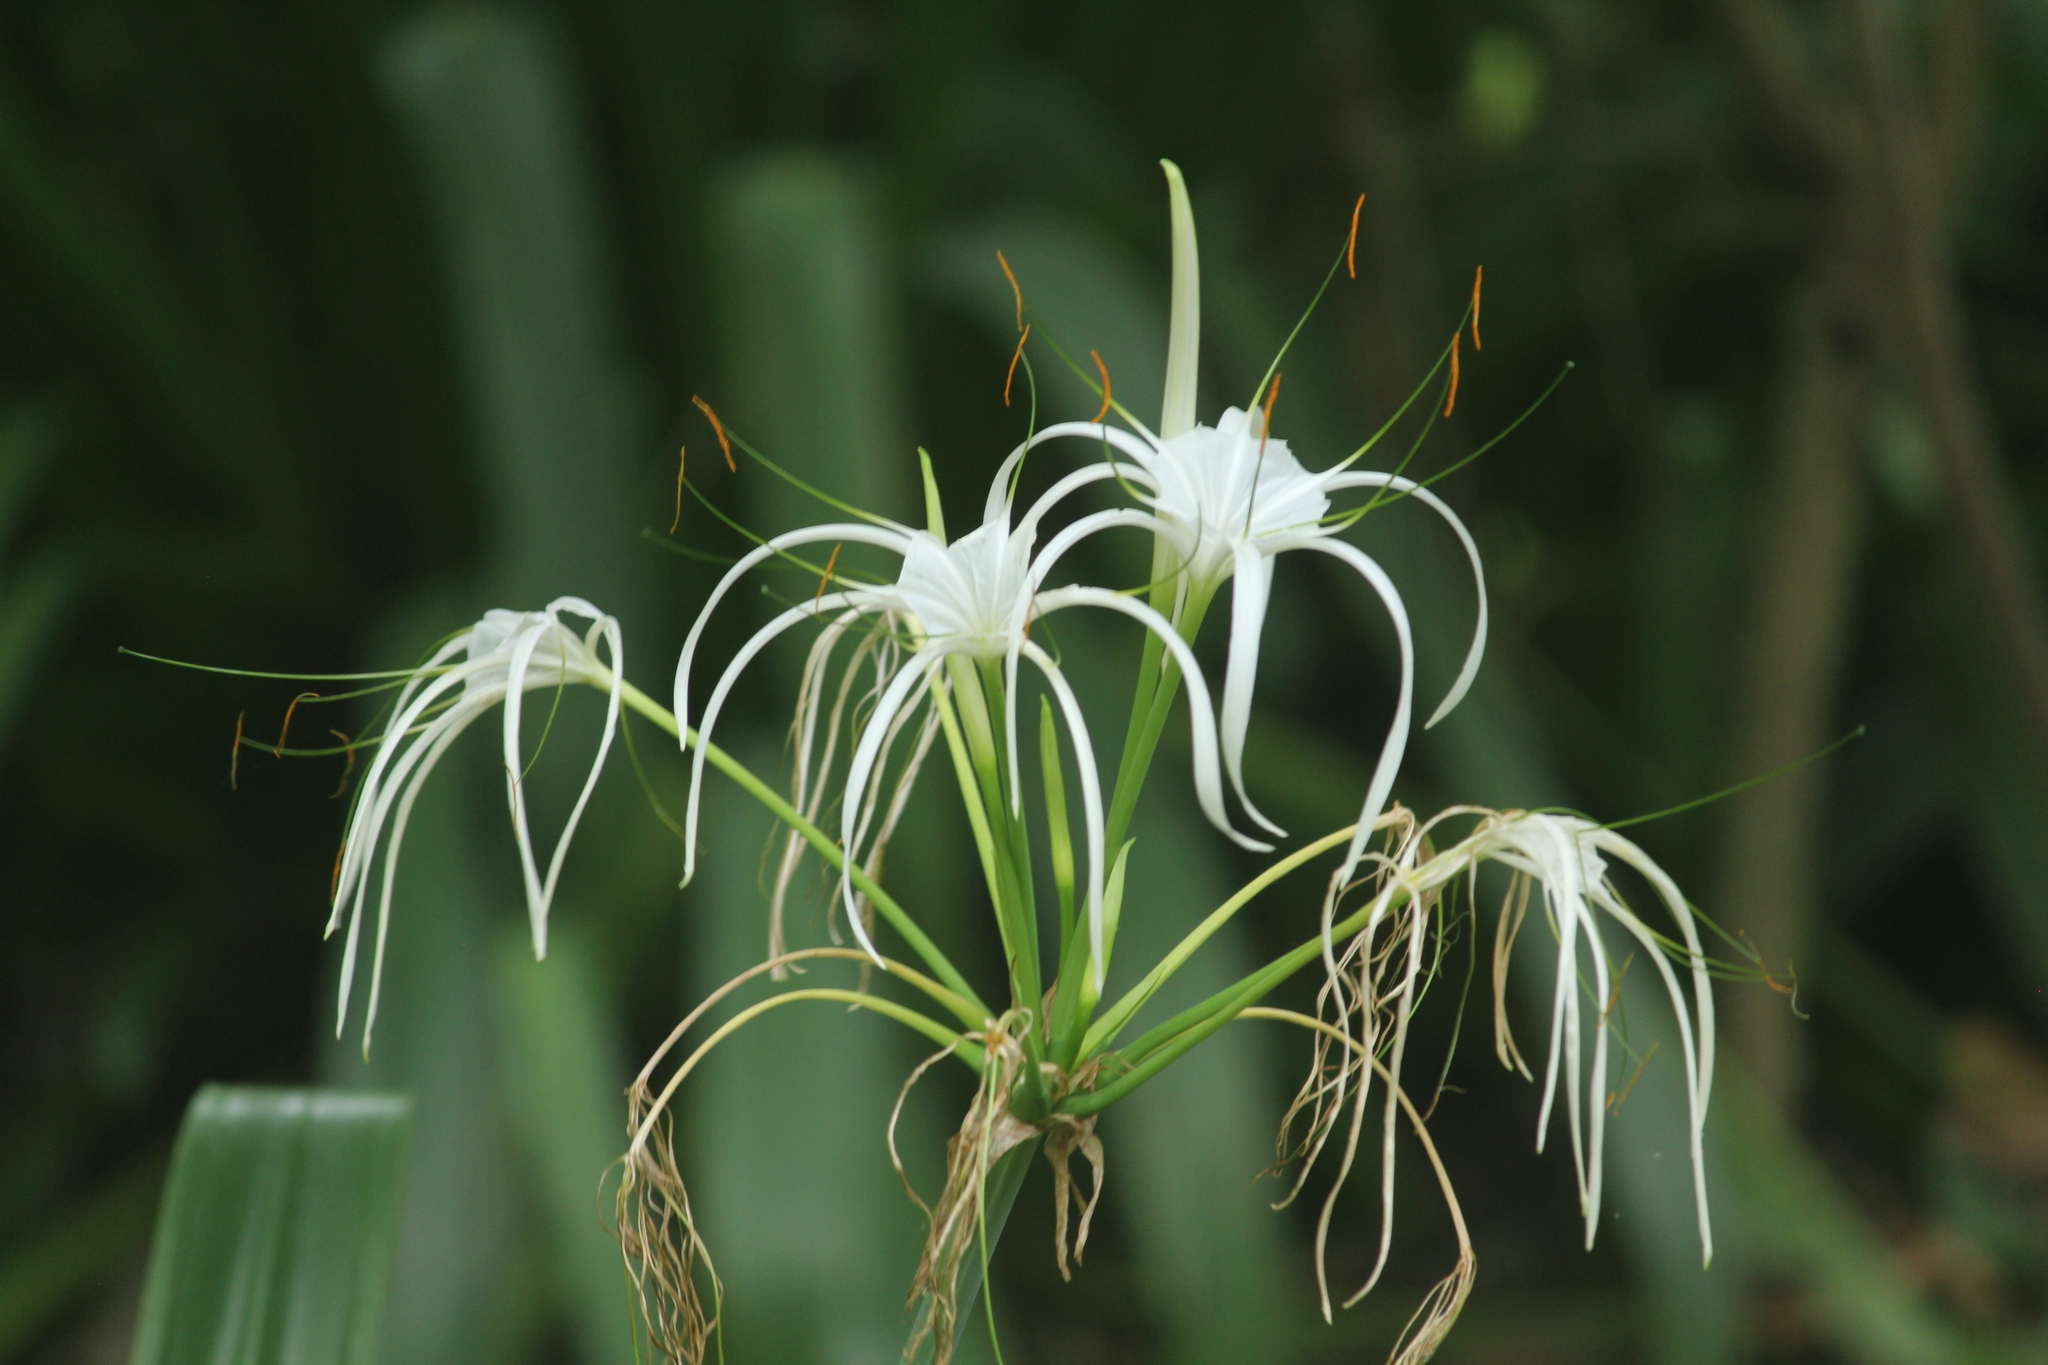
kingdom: Plantae
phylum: Tracheophyta
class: Liliopsida
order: Asparagales
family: Amaryllidaceae
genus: Hymenocallis
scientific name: Hymenocallis littoralis
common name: Beach spiderlily
